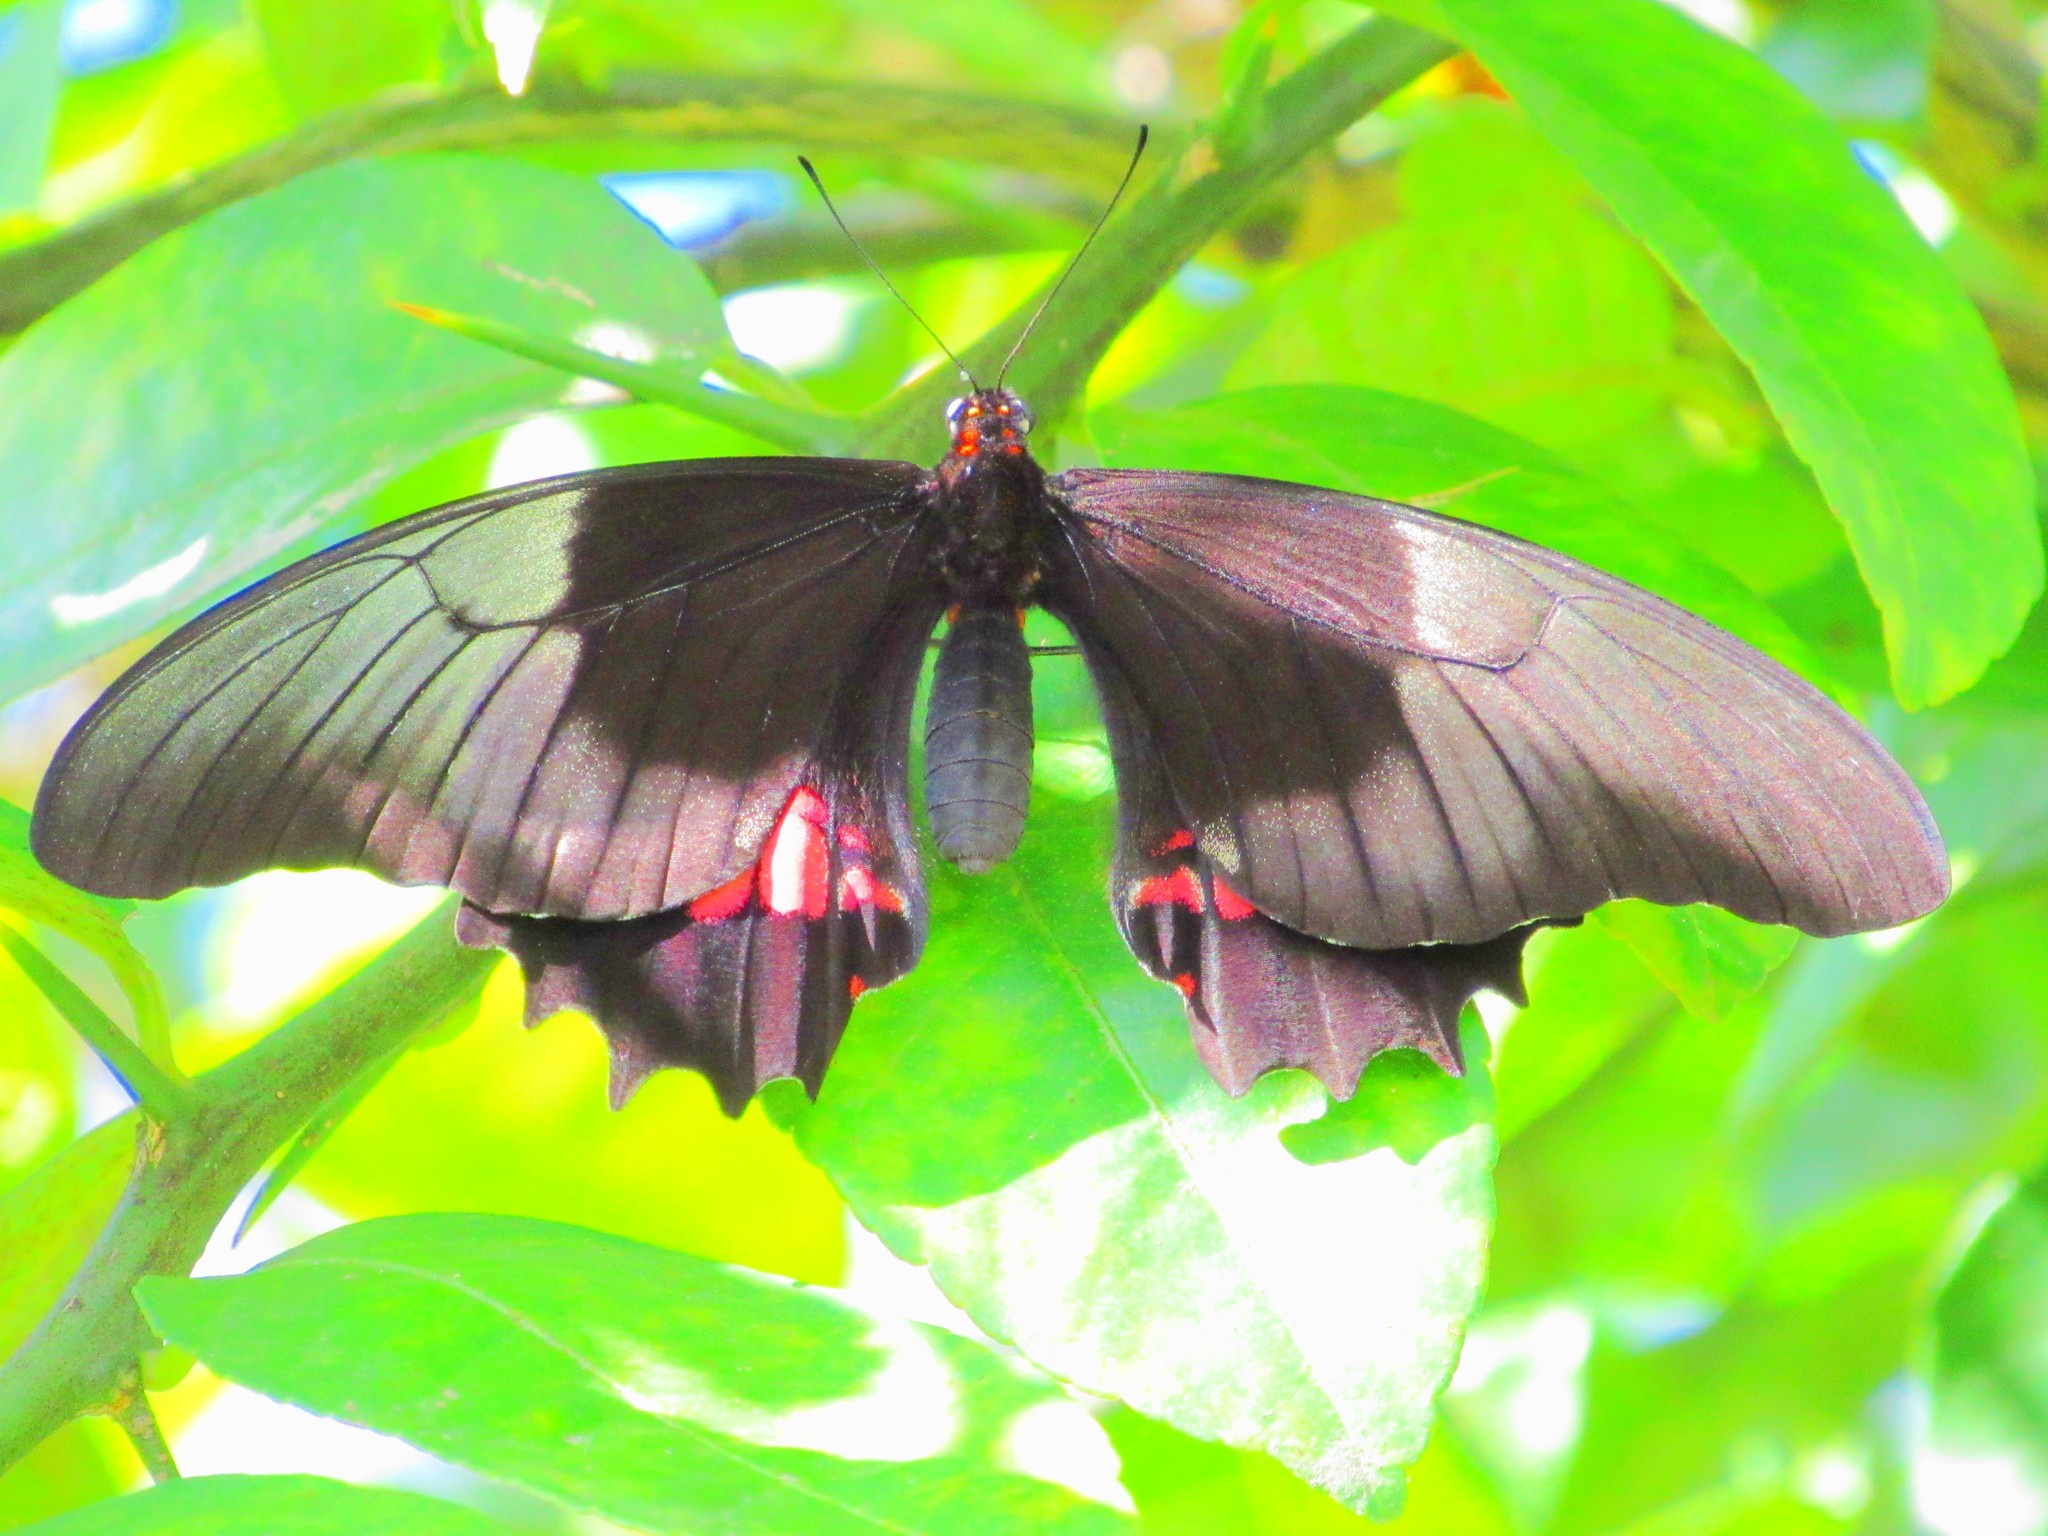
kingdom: Animalia
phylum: Arthropoda
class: Insecta
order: Lepidoptera
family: Papilionidae
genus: Papilio
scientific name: Papilio anchisiades
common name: Idaes swallowtail
